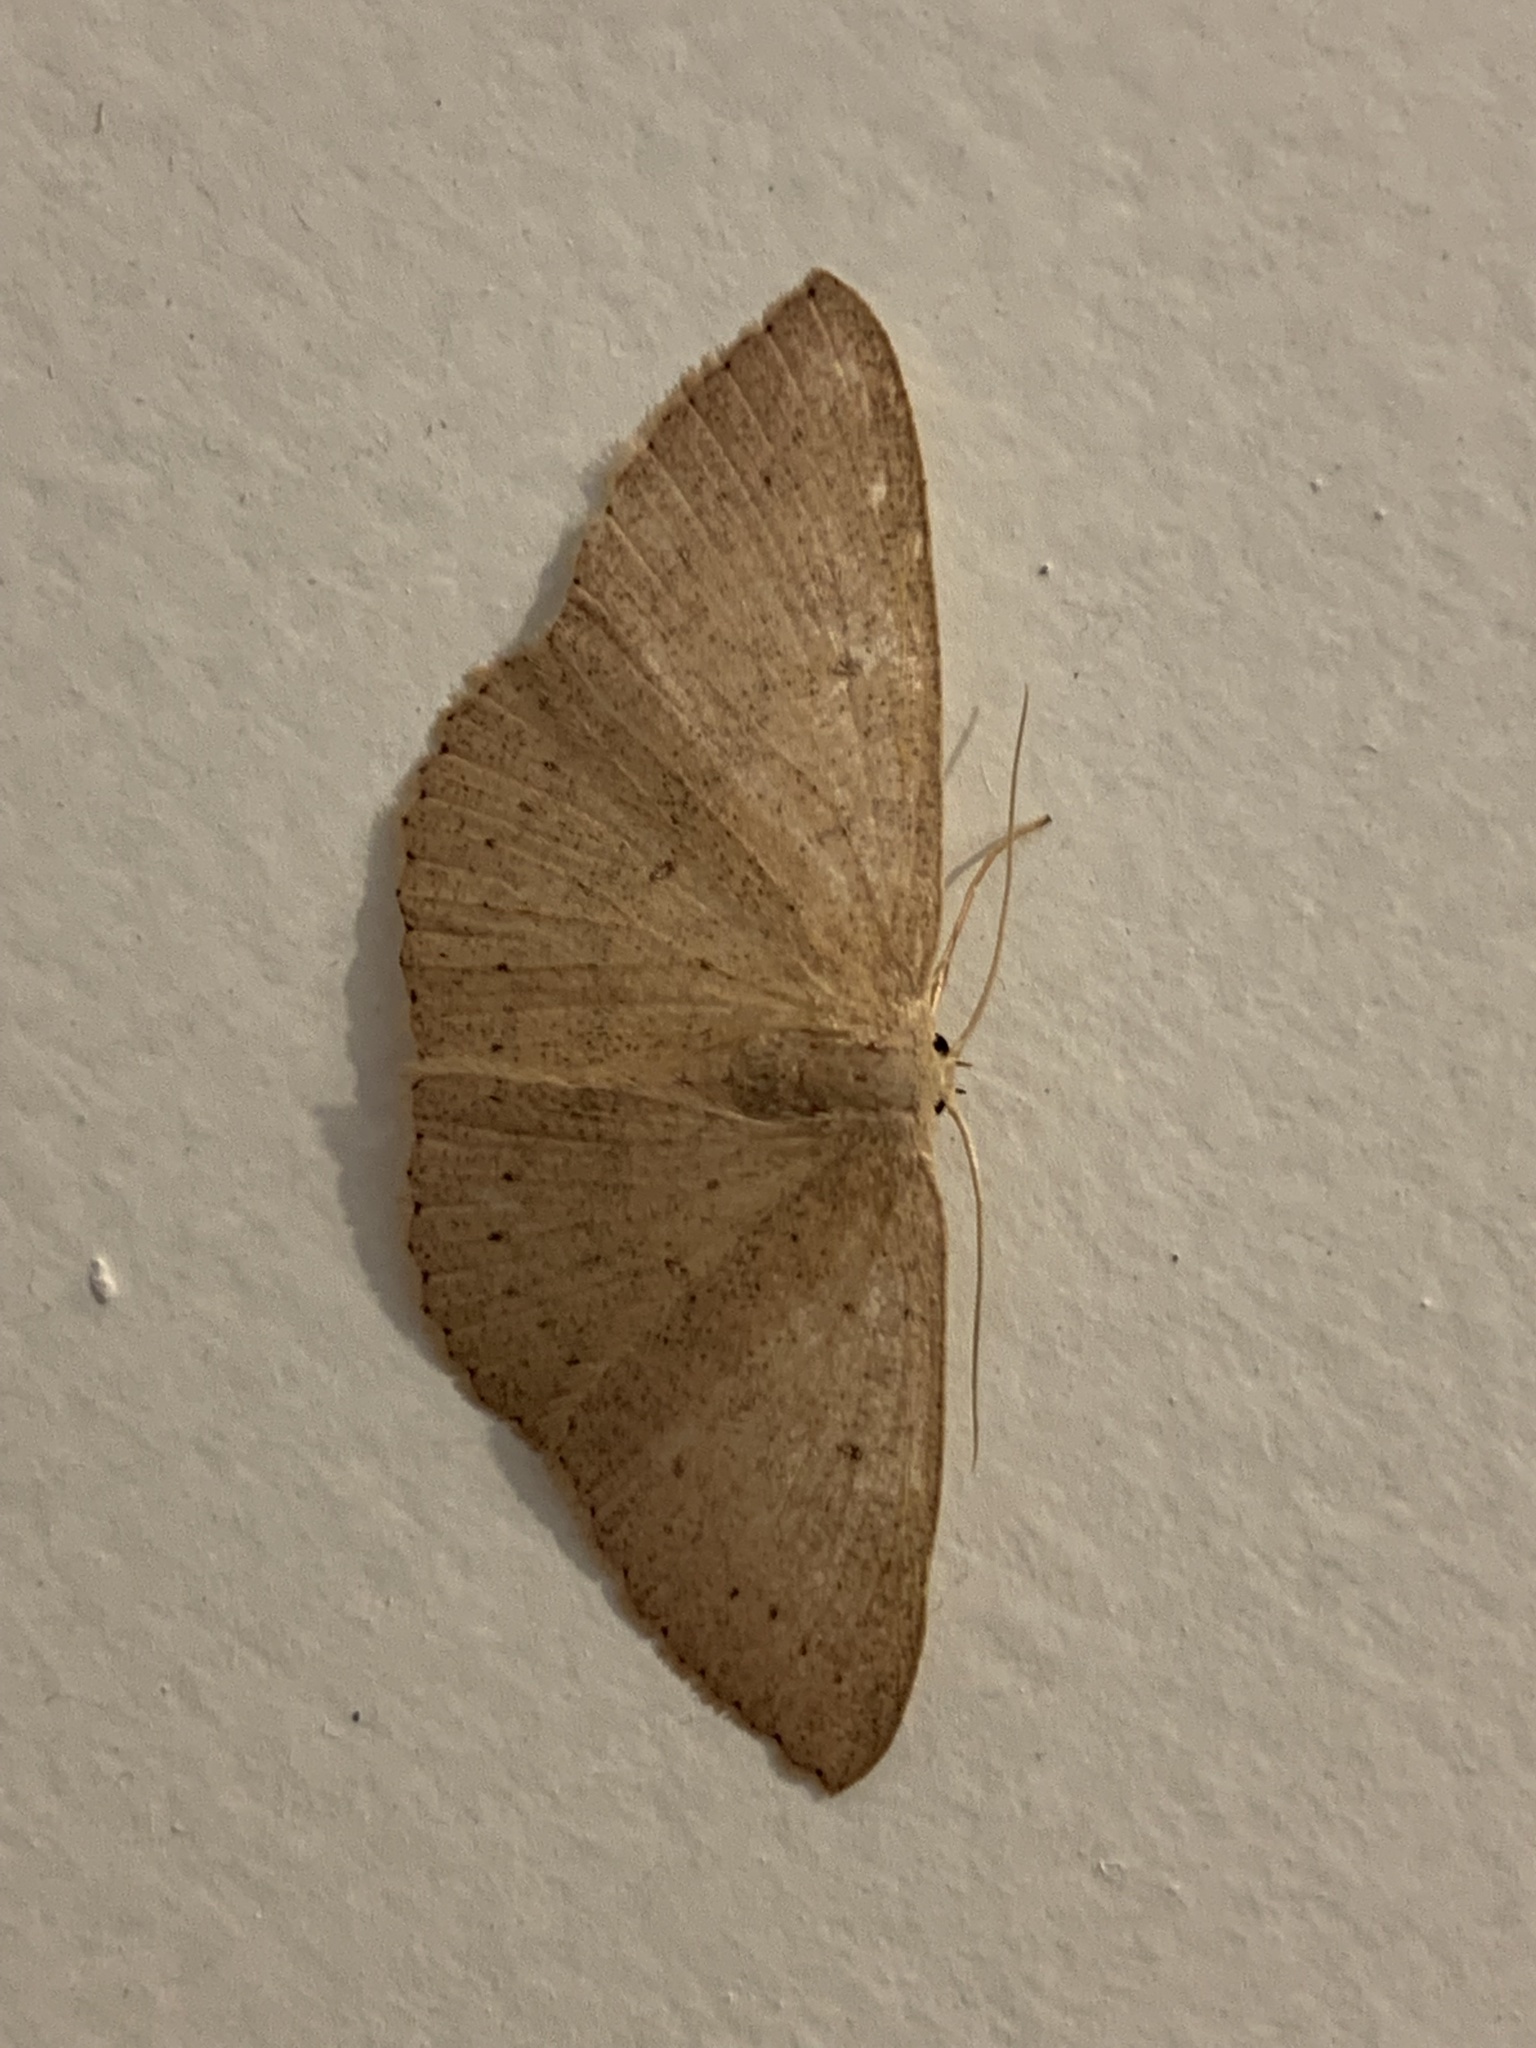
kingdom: Animalia
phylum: Arthropoda
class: Insecta
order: Lepidoptera
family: Geometridae
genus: Cyclophora
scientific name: Cyclophora obstataria
